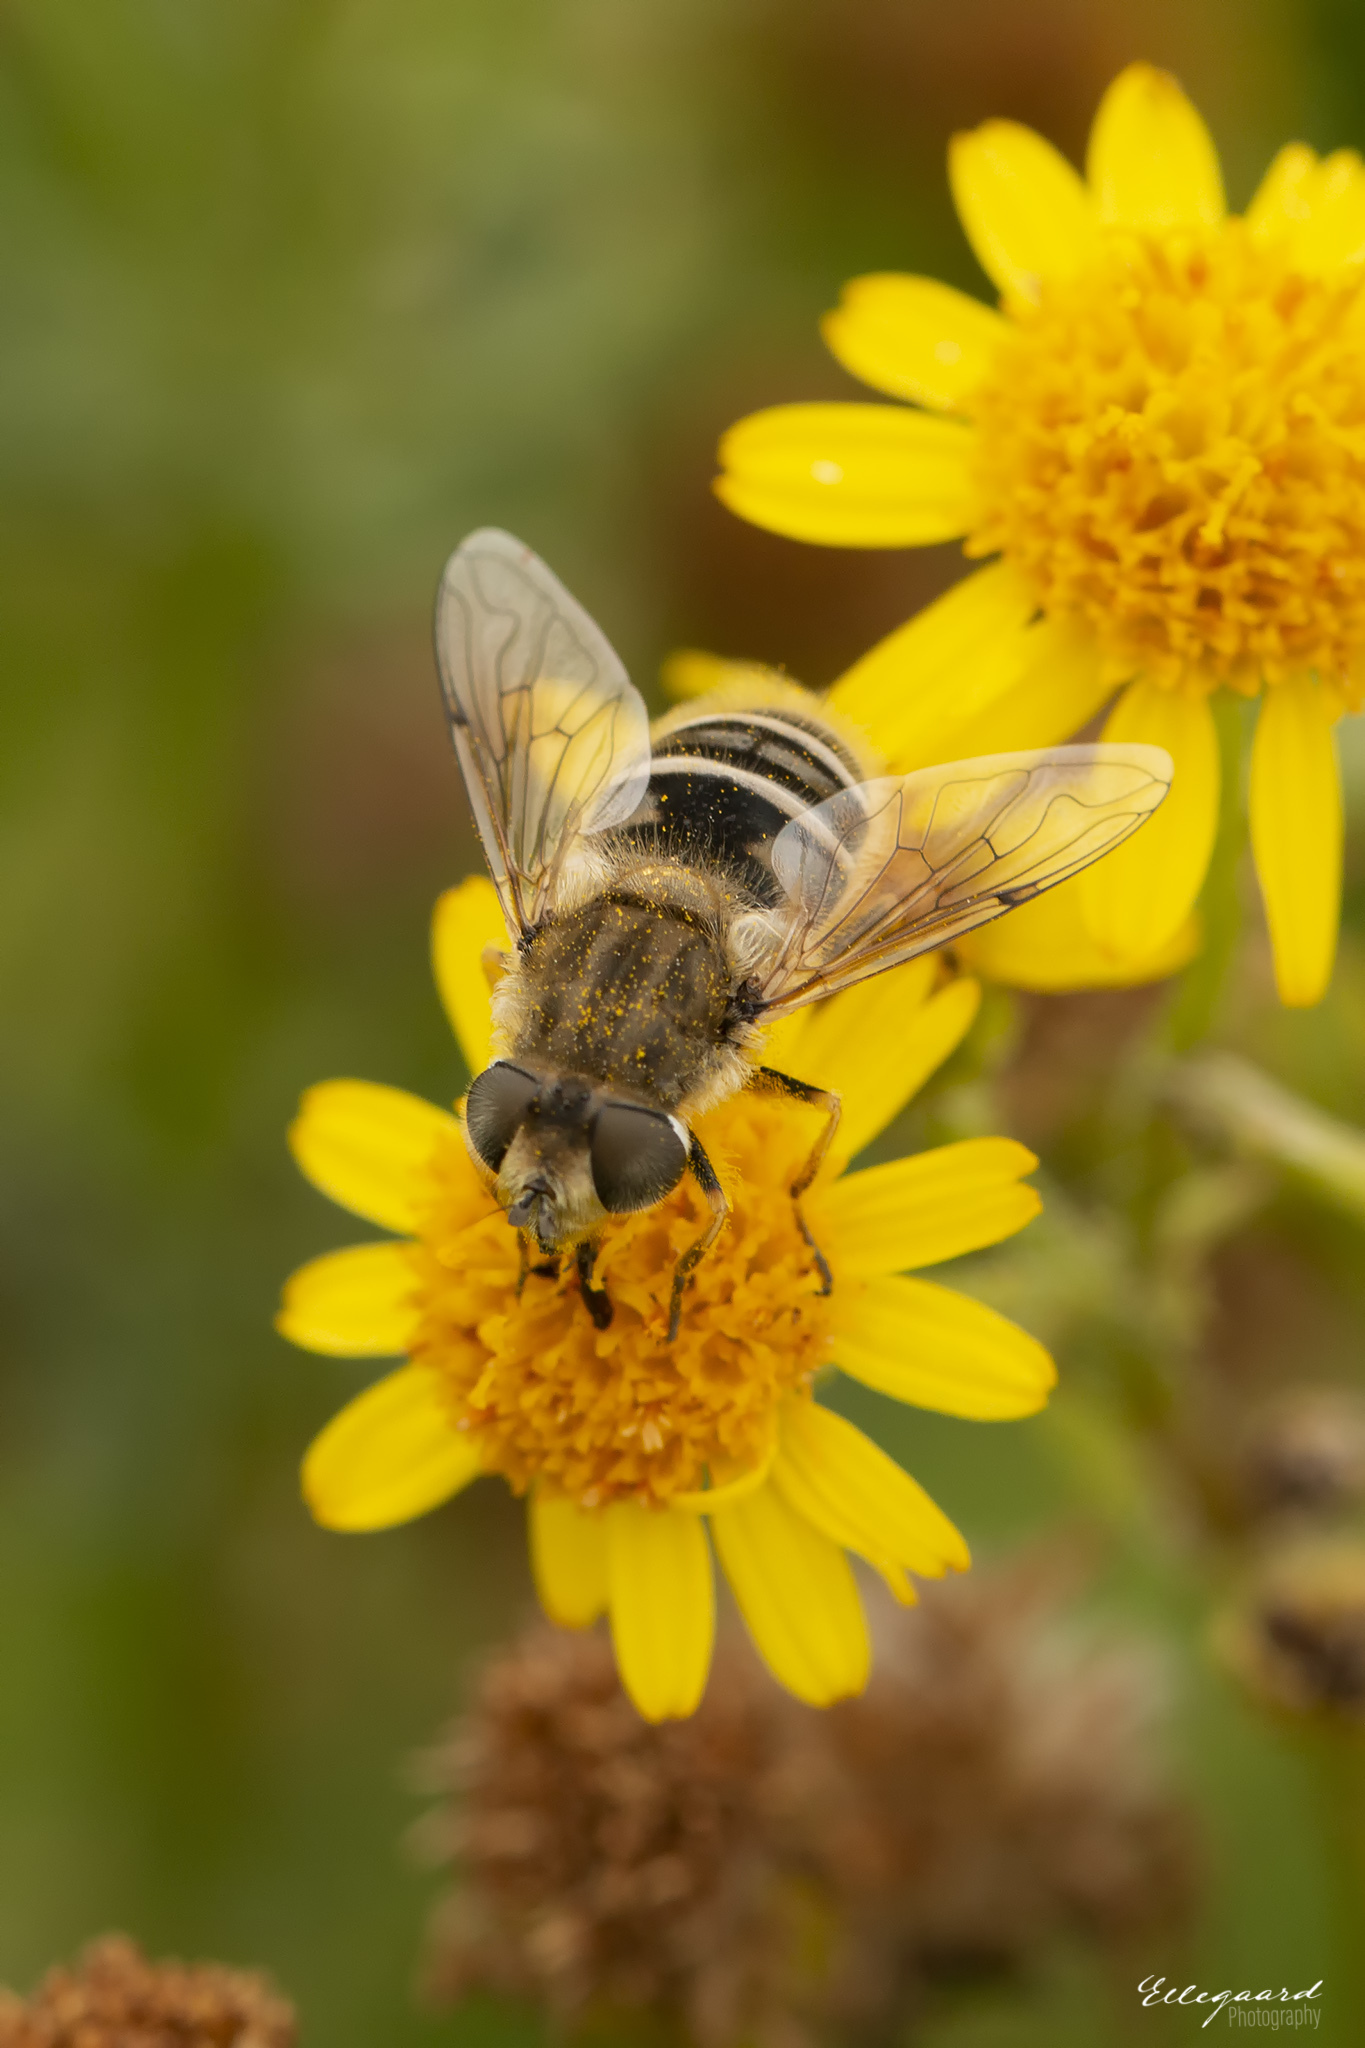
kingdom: Animalia
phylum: Arthropoda
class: Insecta
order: Diptera
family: Syrphidae
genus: Eristalis
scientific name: Eristalis abusivus
